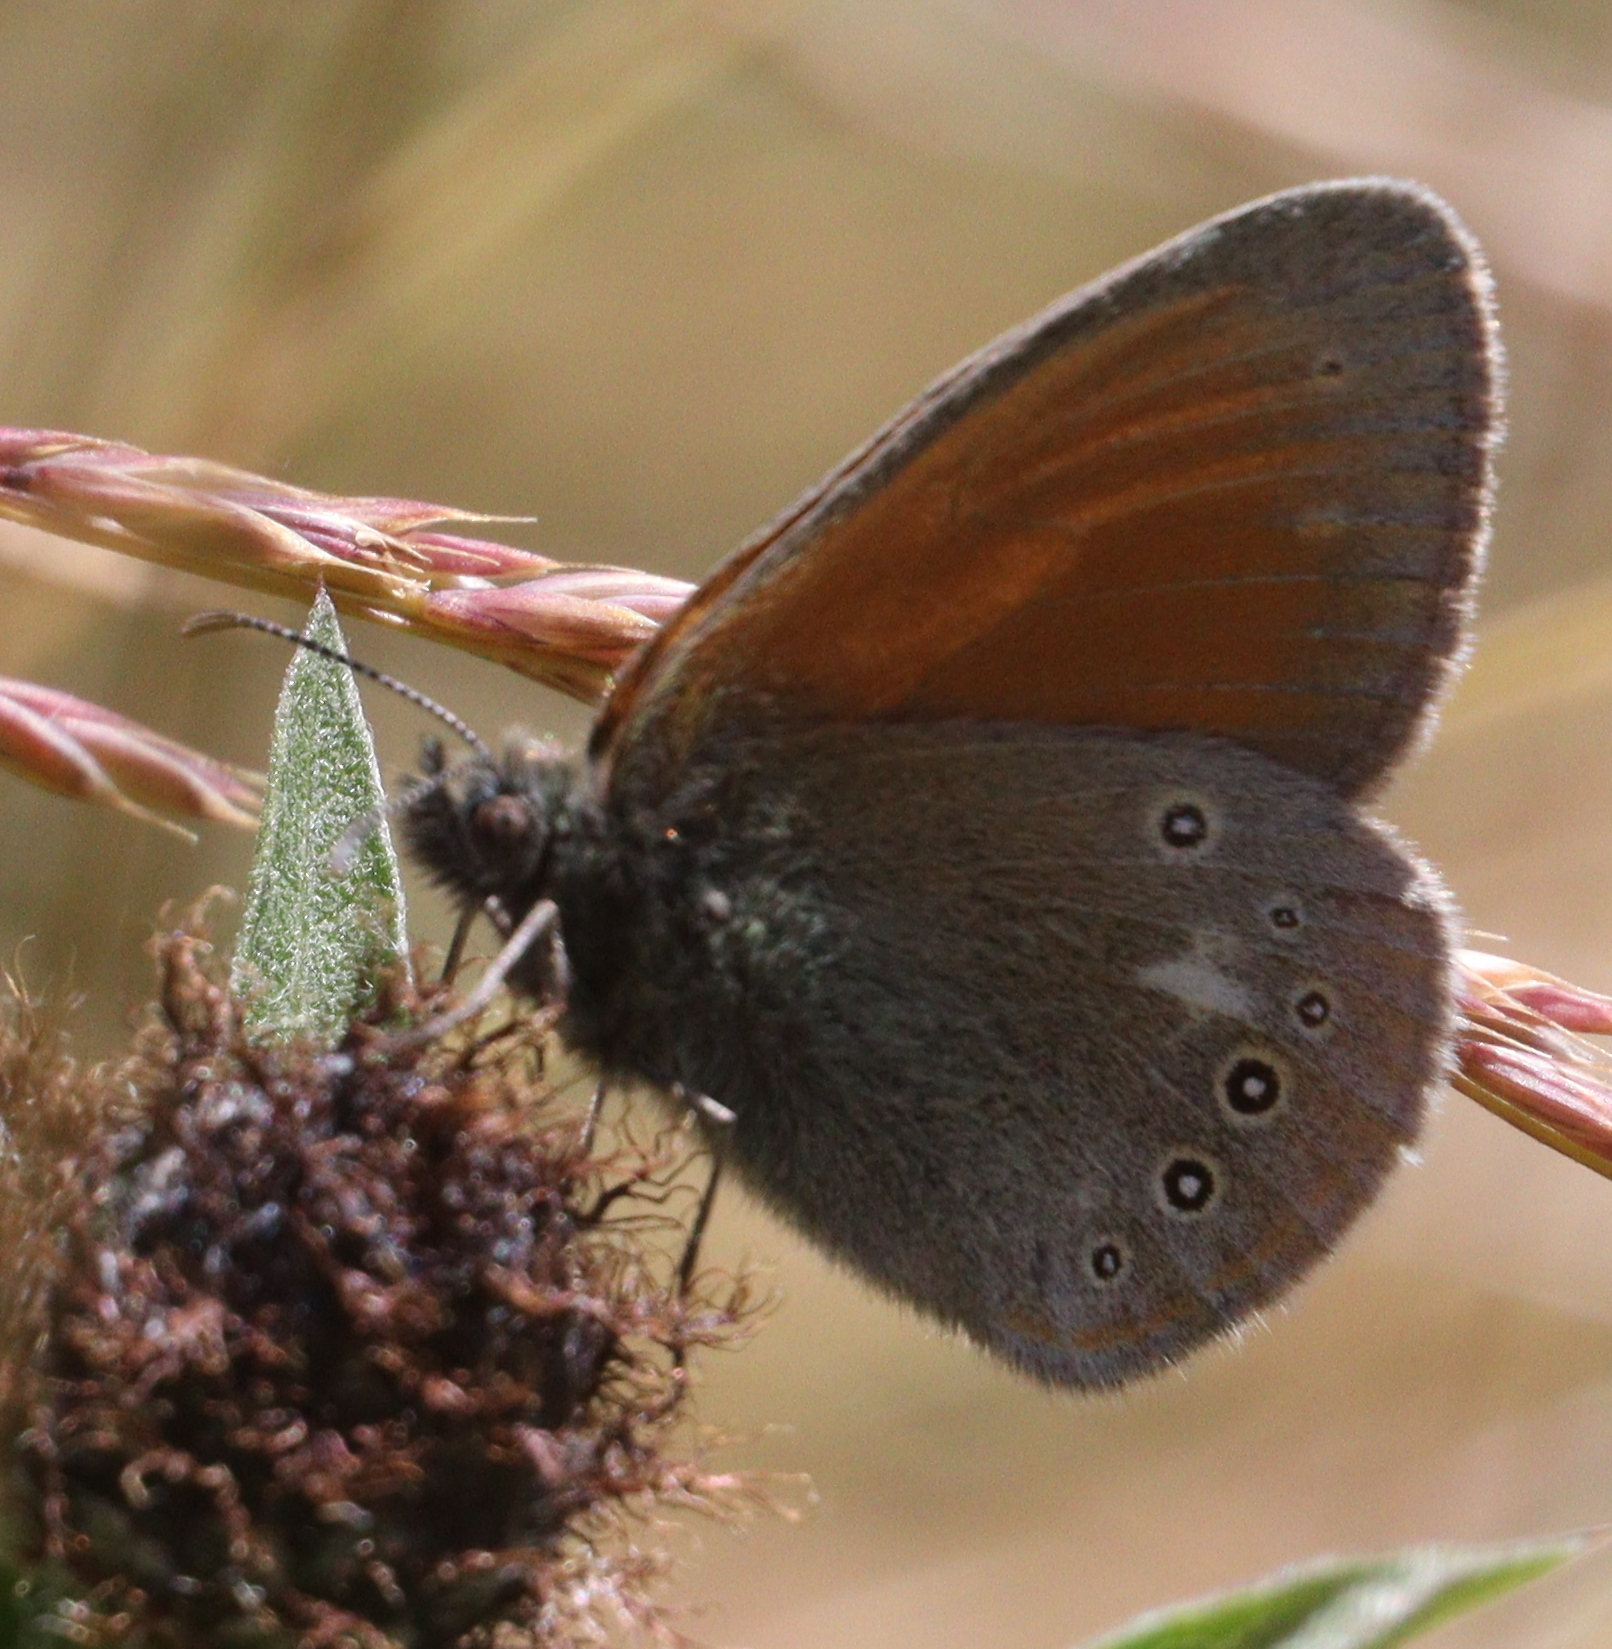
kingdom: Animalia
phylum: Arthropoda
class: Insecta
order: Lepidoptera
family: Nymphalidae
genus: Coenonympha
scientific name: Coenonympha iphis
